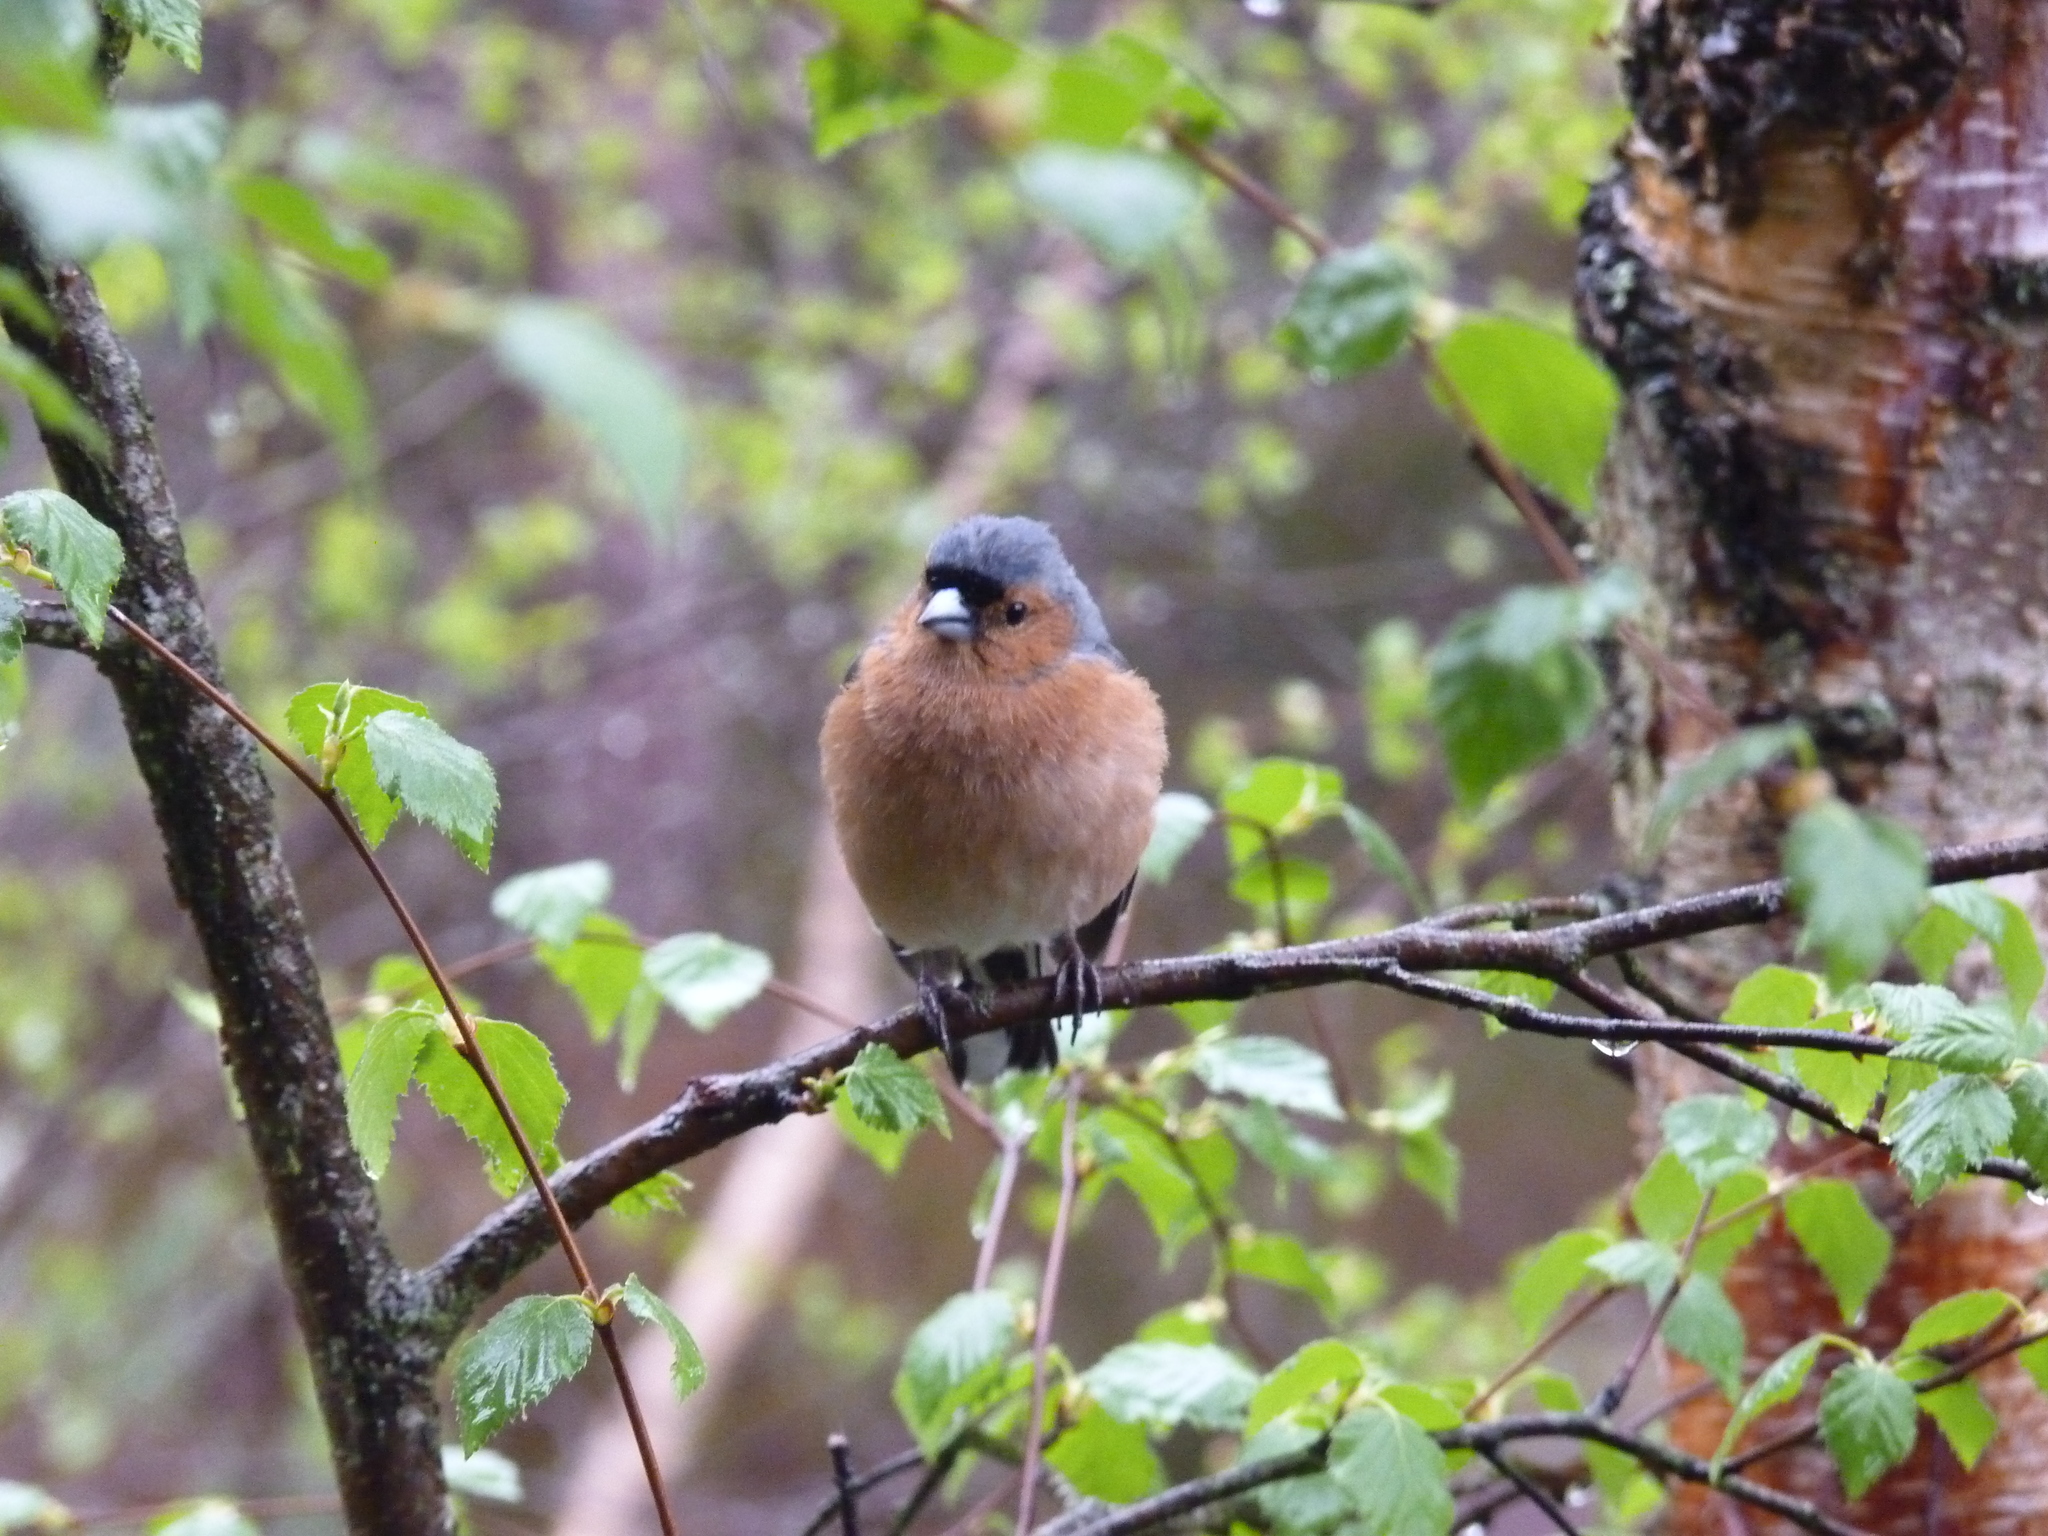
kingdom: Animalia
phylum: Chordata
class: Aves
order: Passeriformes
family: Fringillidae
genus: Fringilla
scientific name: Fringilla coelebs
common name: Common chaffinch
